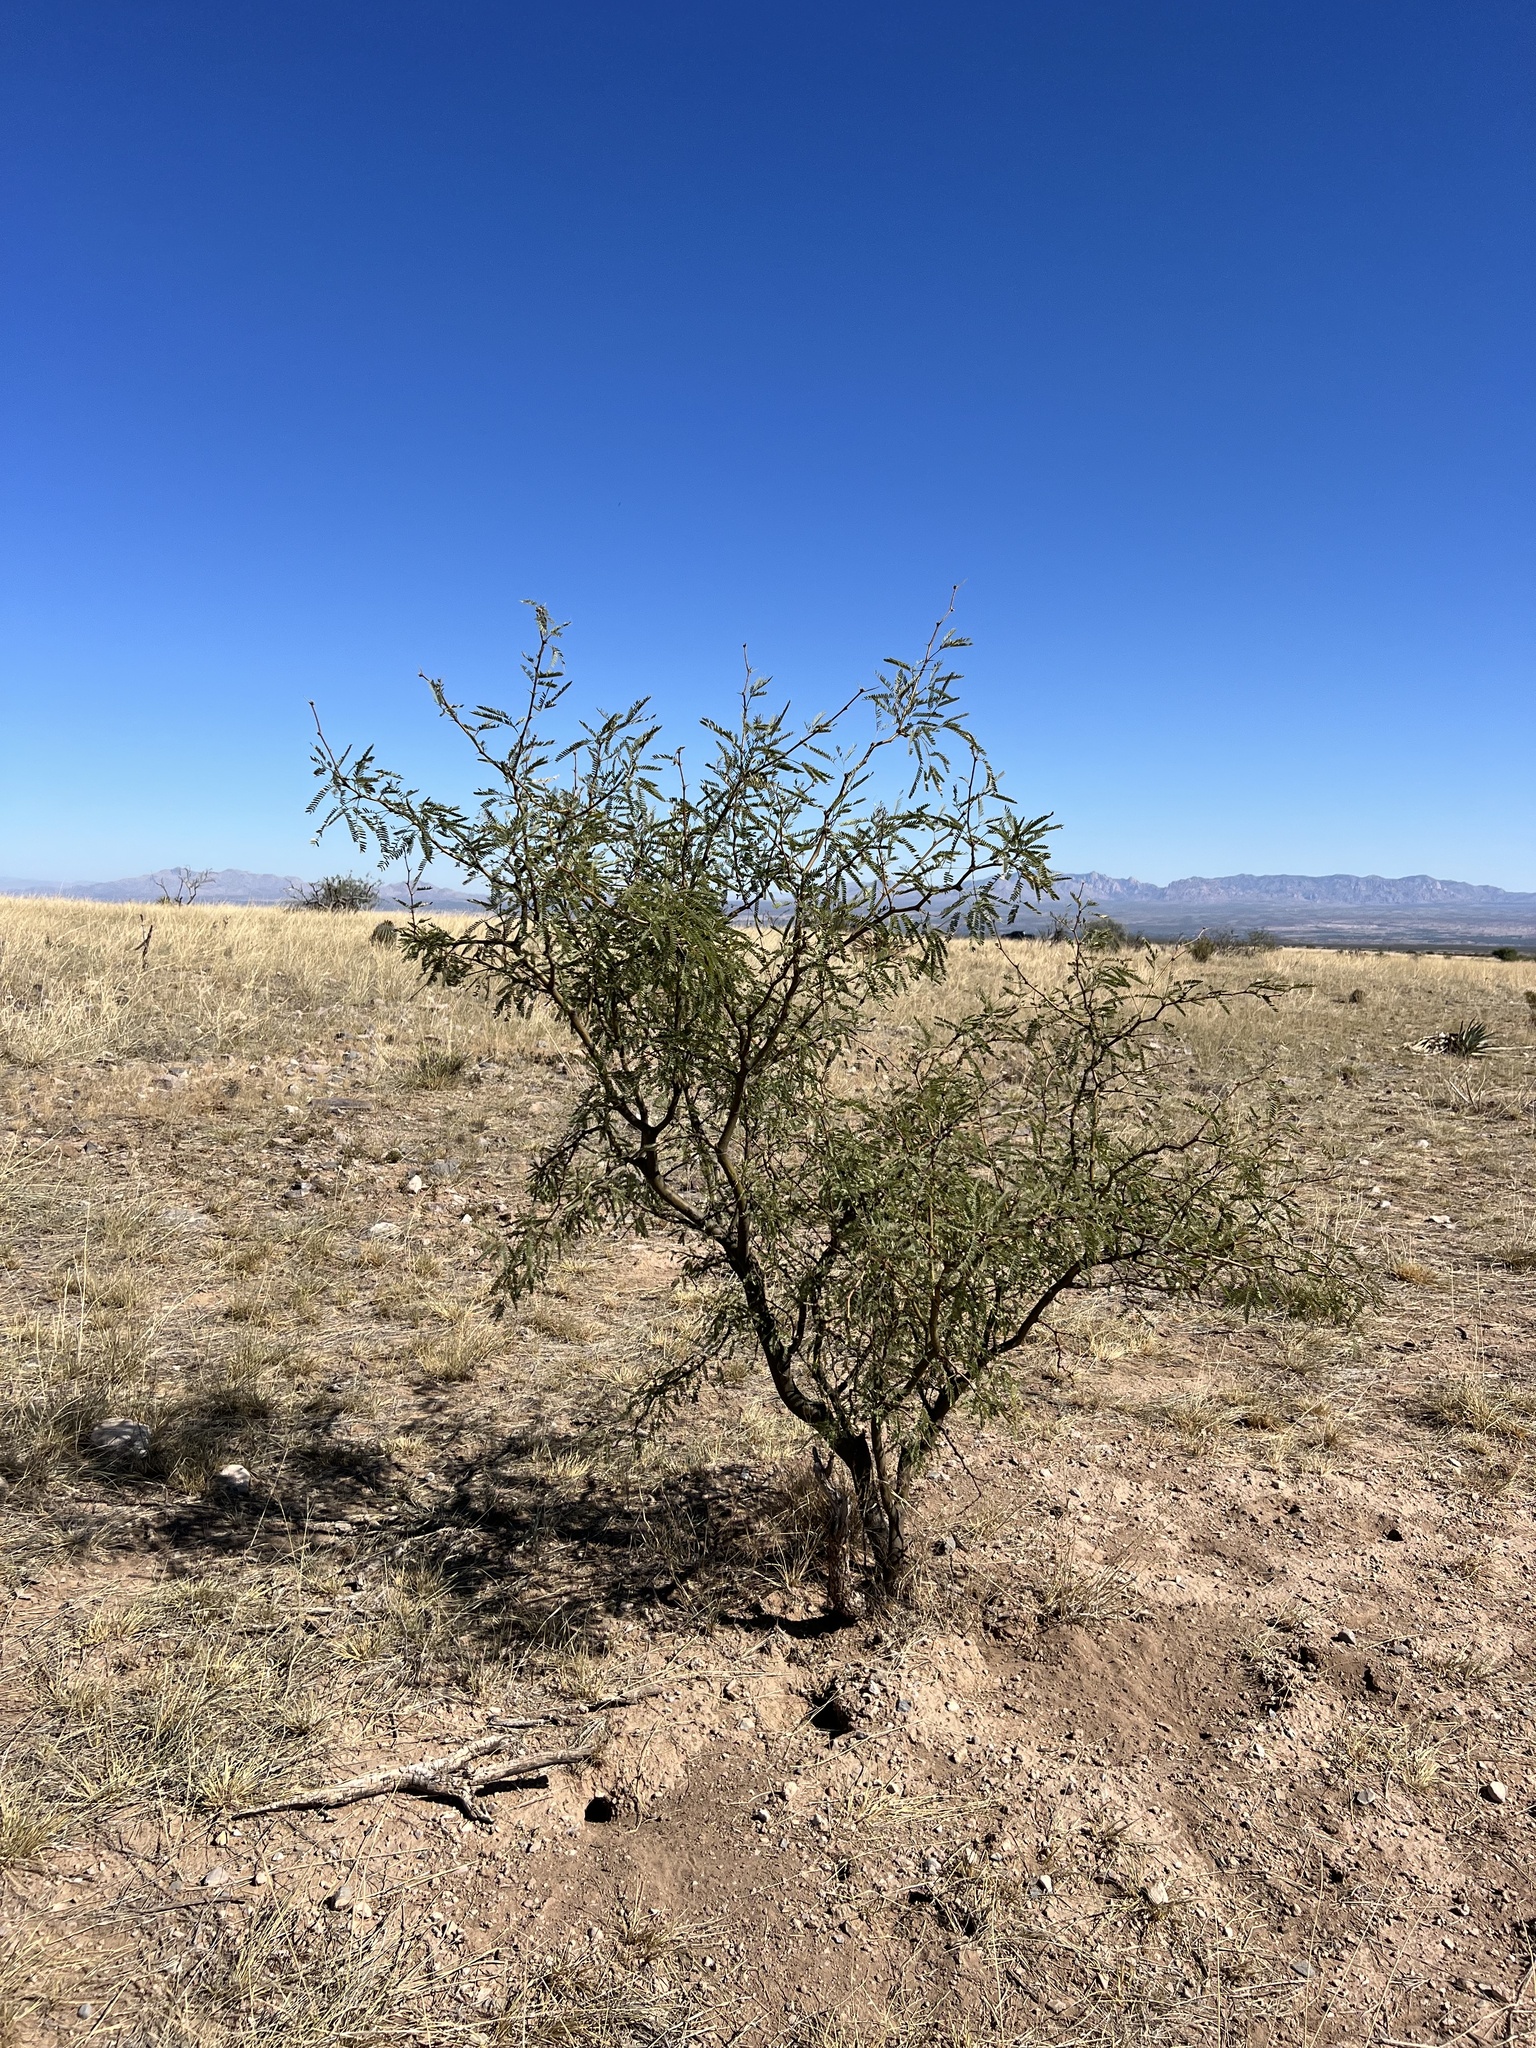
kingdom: Plantae
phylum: Tracheophyta
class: Magnoliopsida
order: Fabales
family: Fabaceae
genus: Prosopis
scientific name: Prosopis velutina
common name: Velvet mesquite
